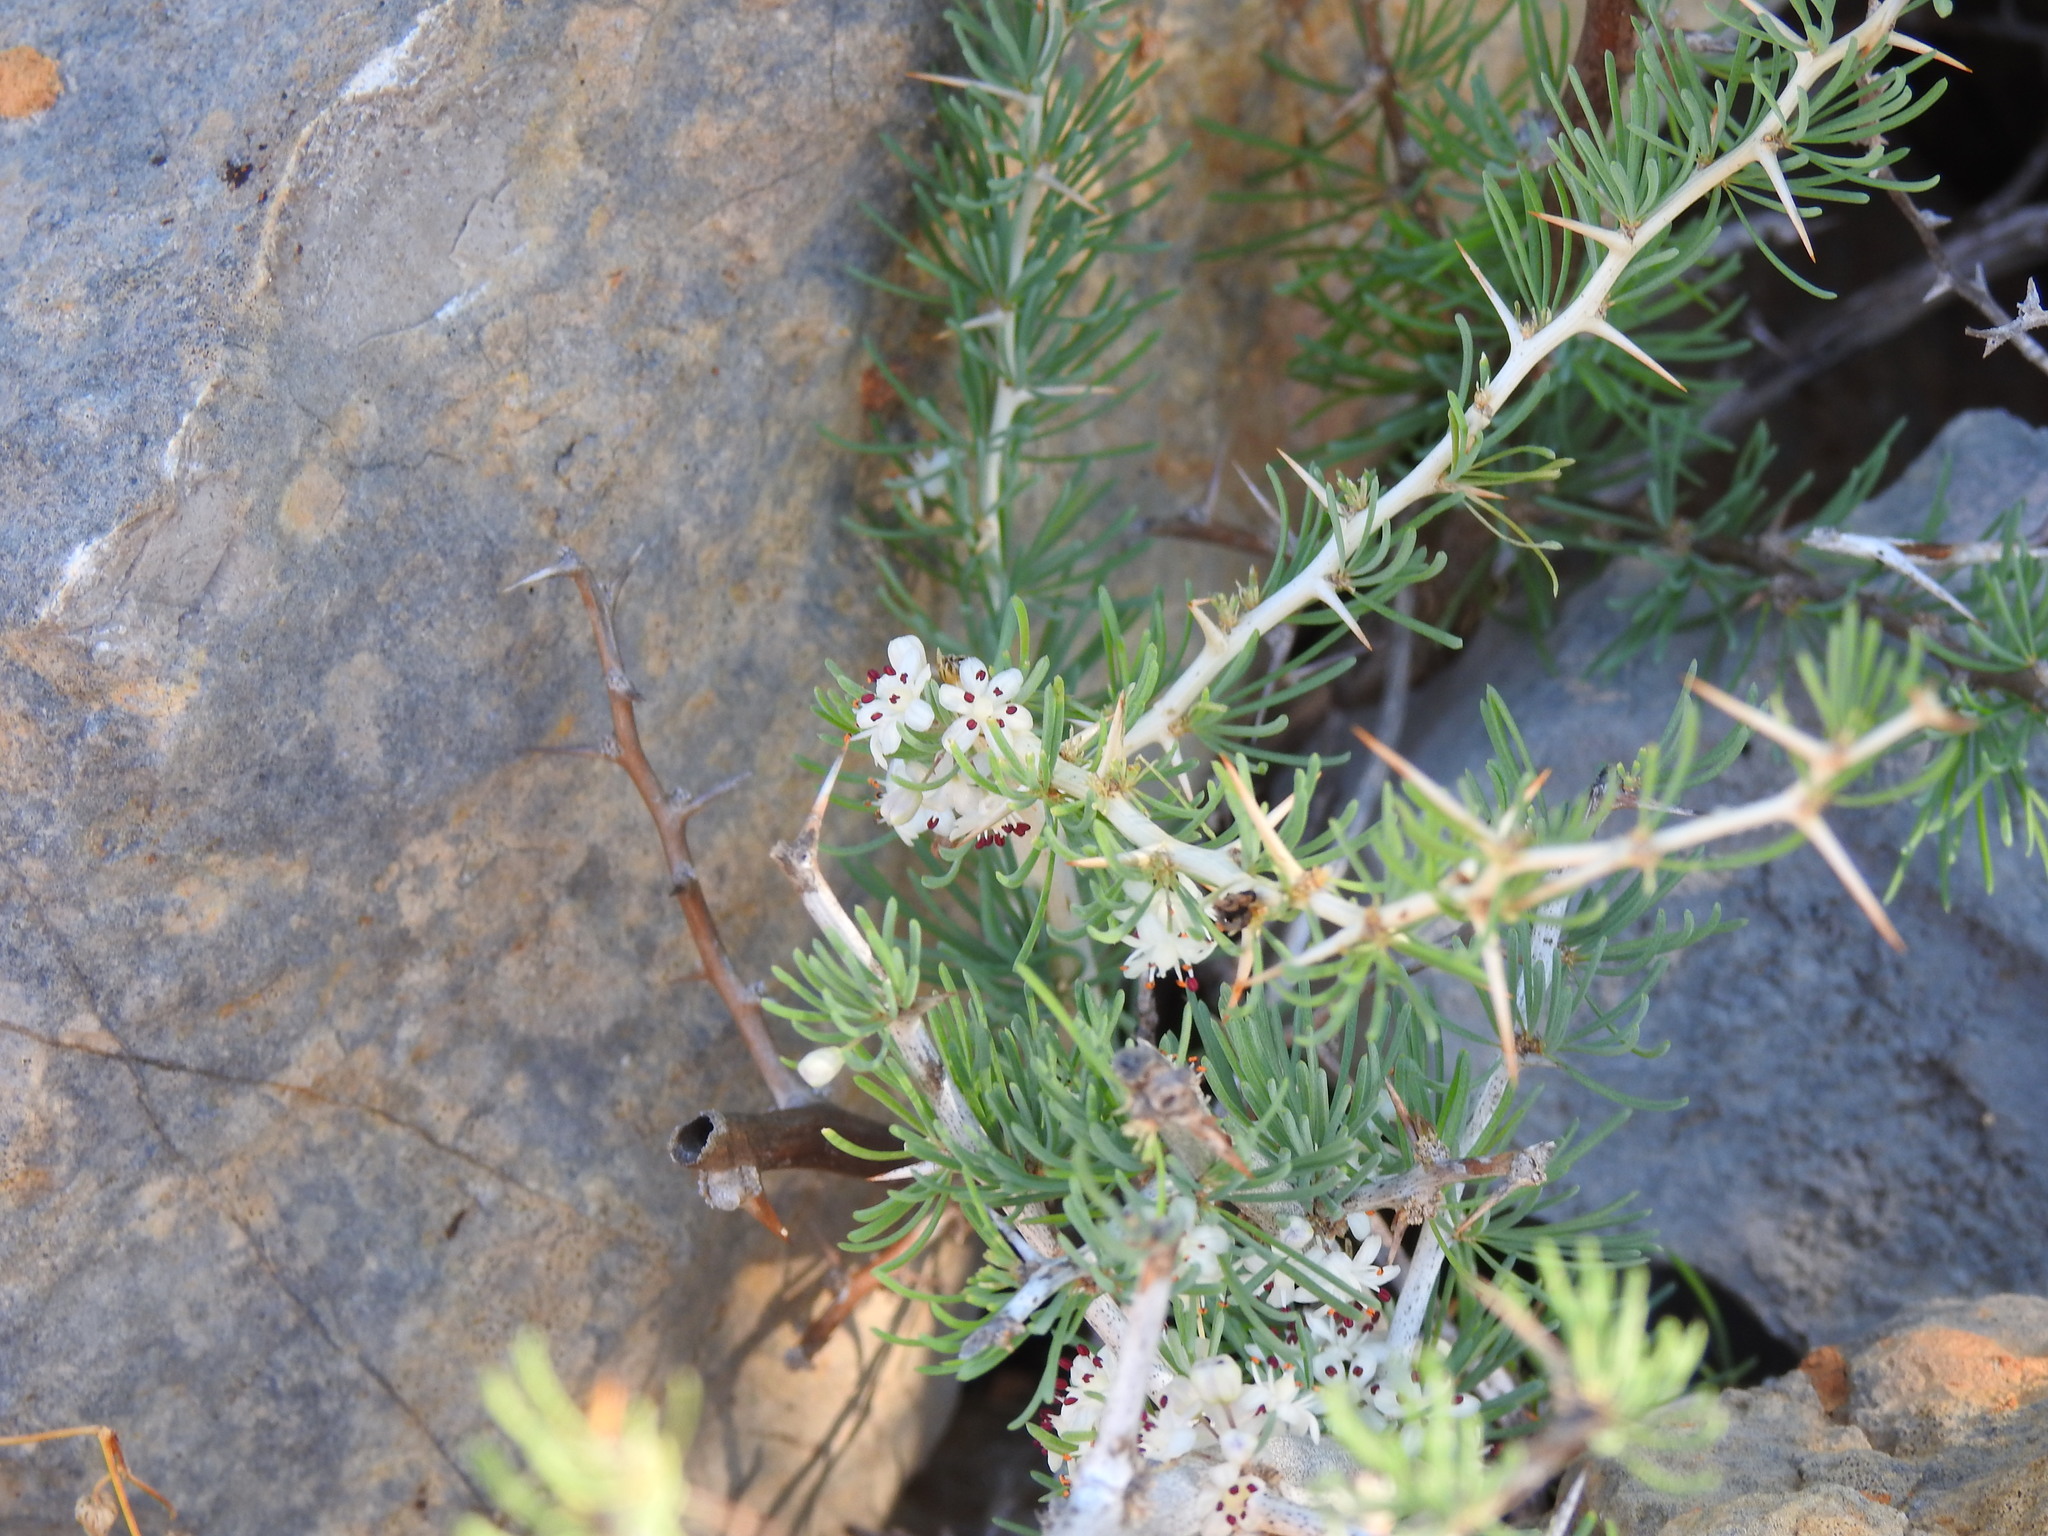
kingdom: Plantae
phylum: Tracheophyta
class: Liliopsida
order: Asparagales
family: Asparagaceae
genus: Asparagus
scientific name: Asparagus albus
